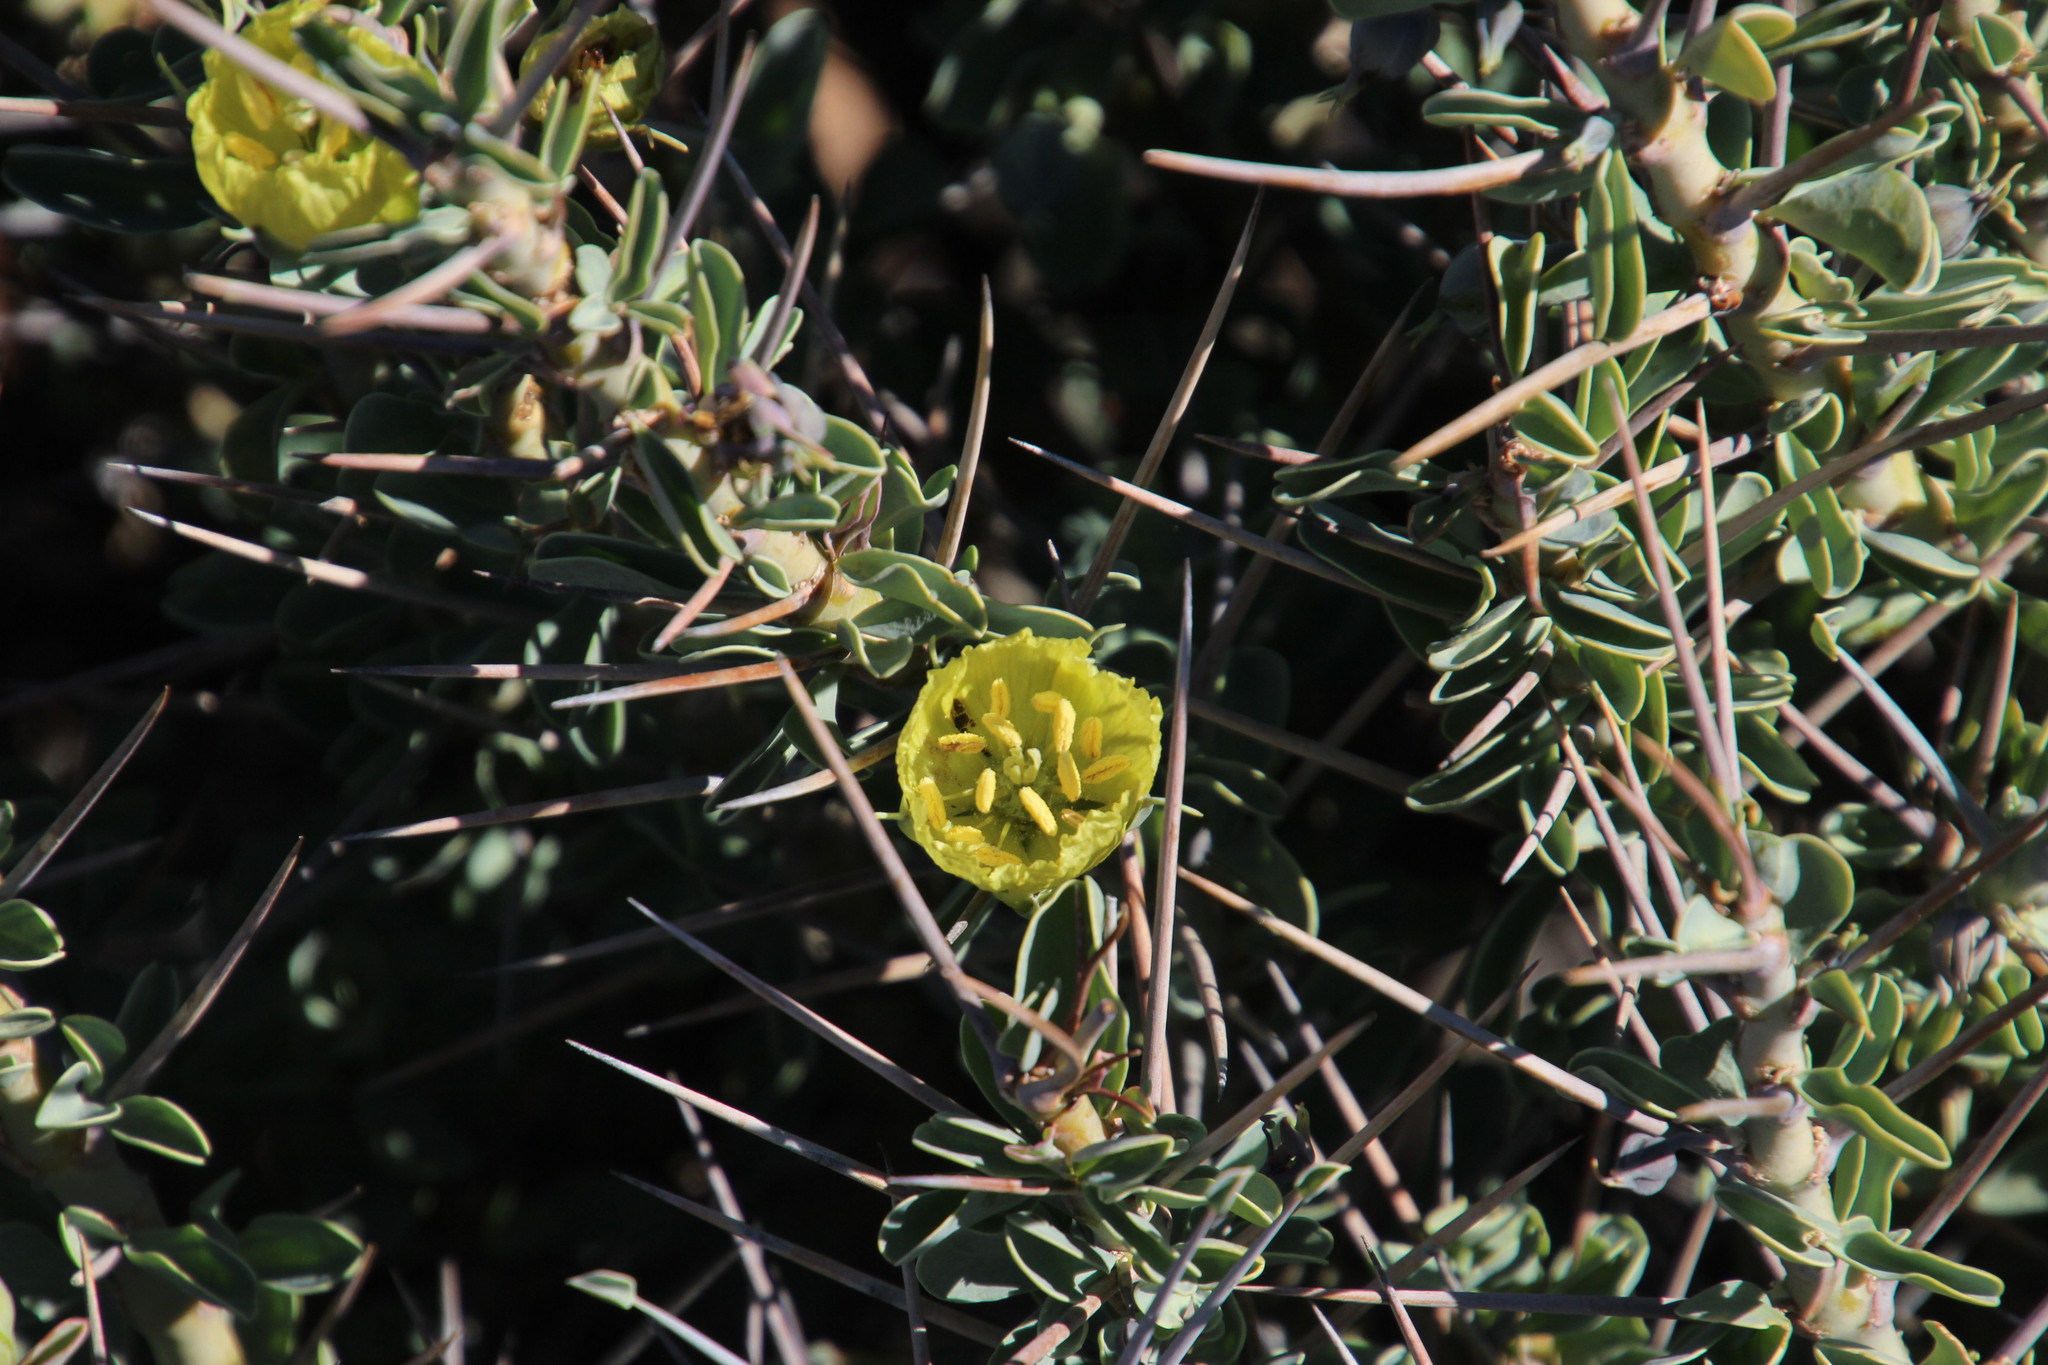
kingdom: Plantae
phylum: Tracheophyta
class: Magnoliopsida
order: Geraniales
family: Geraniaceae
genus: Monsonia
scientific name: Monsonia spinosa
